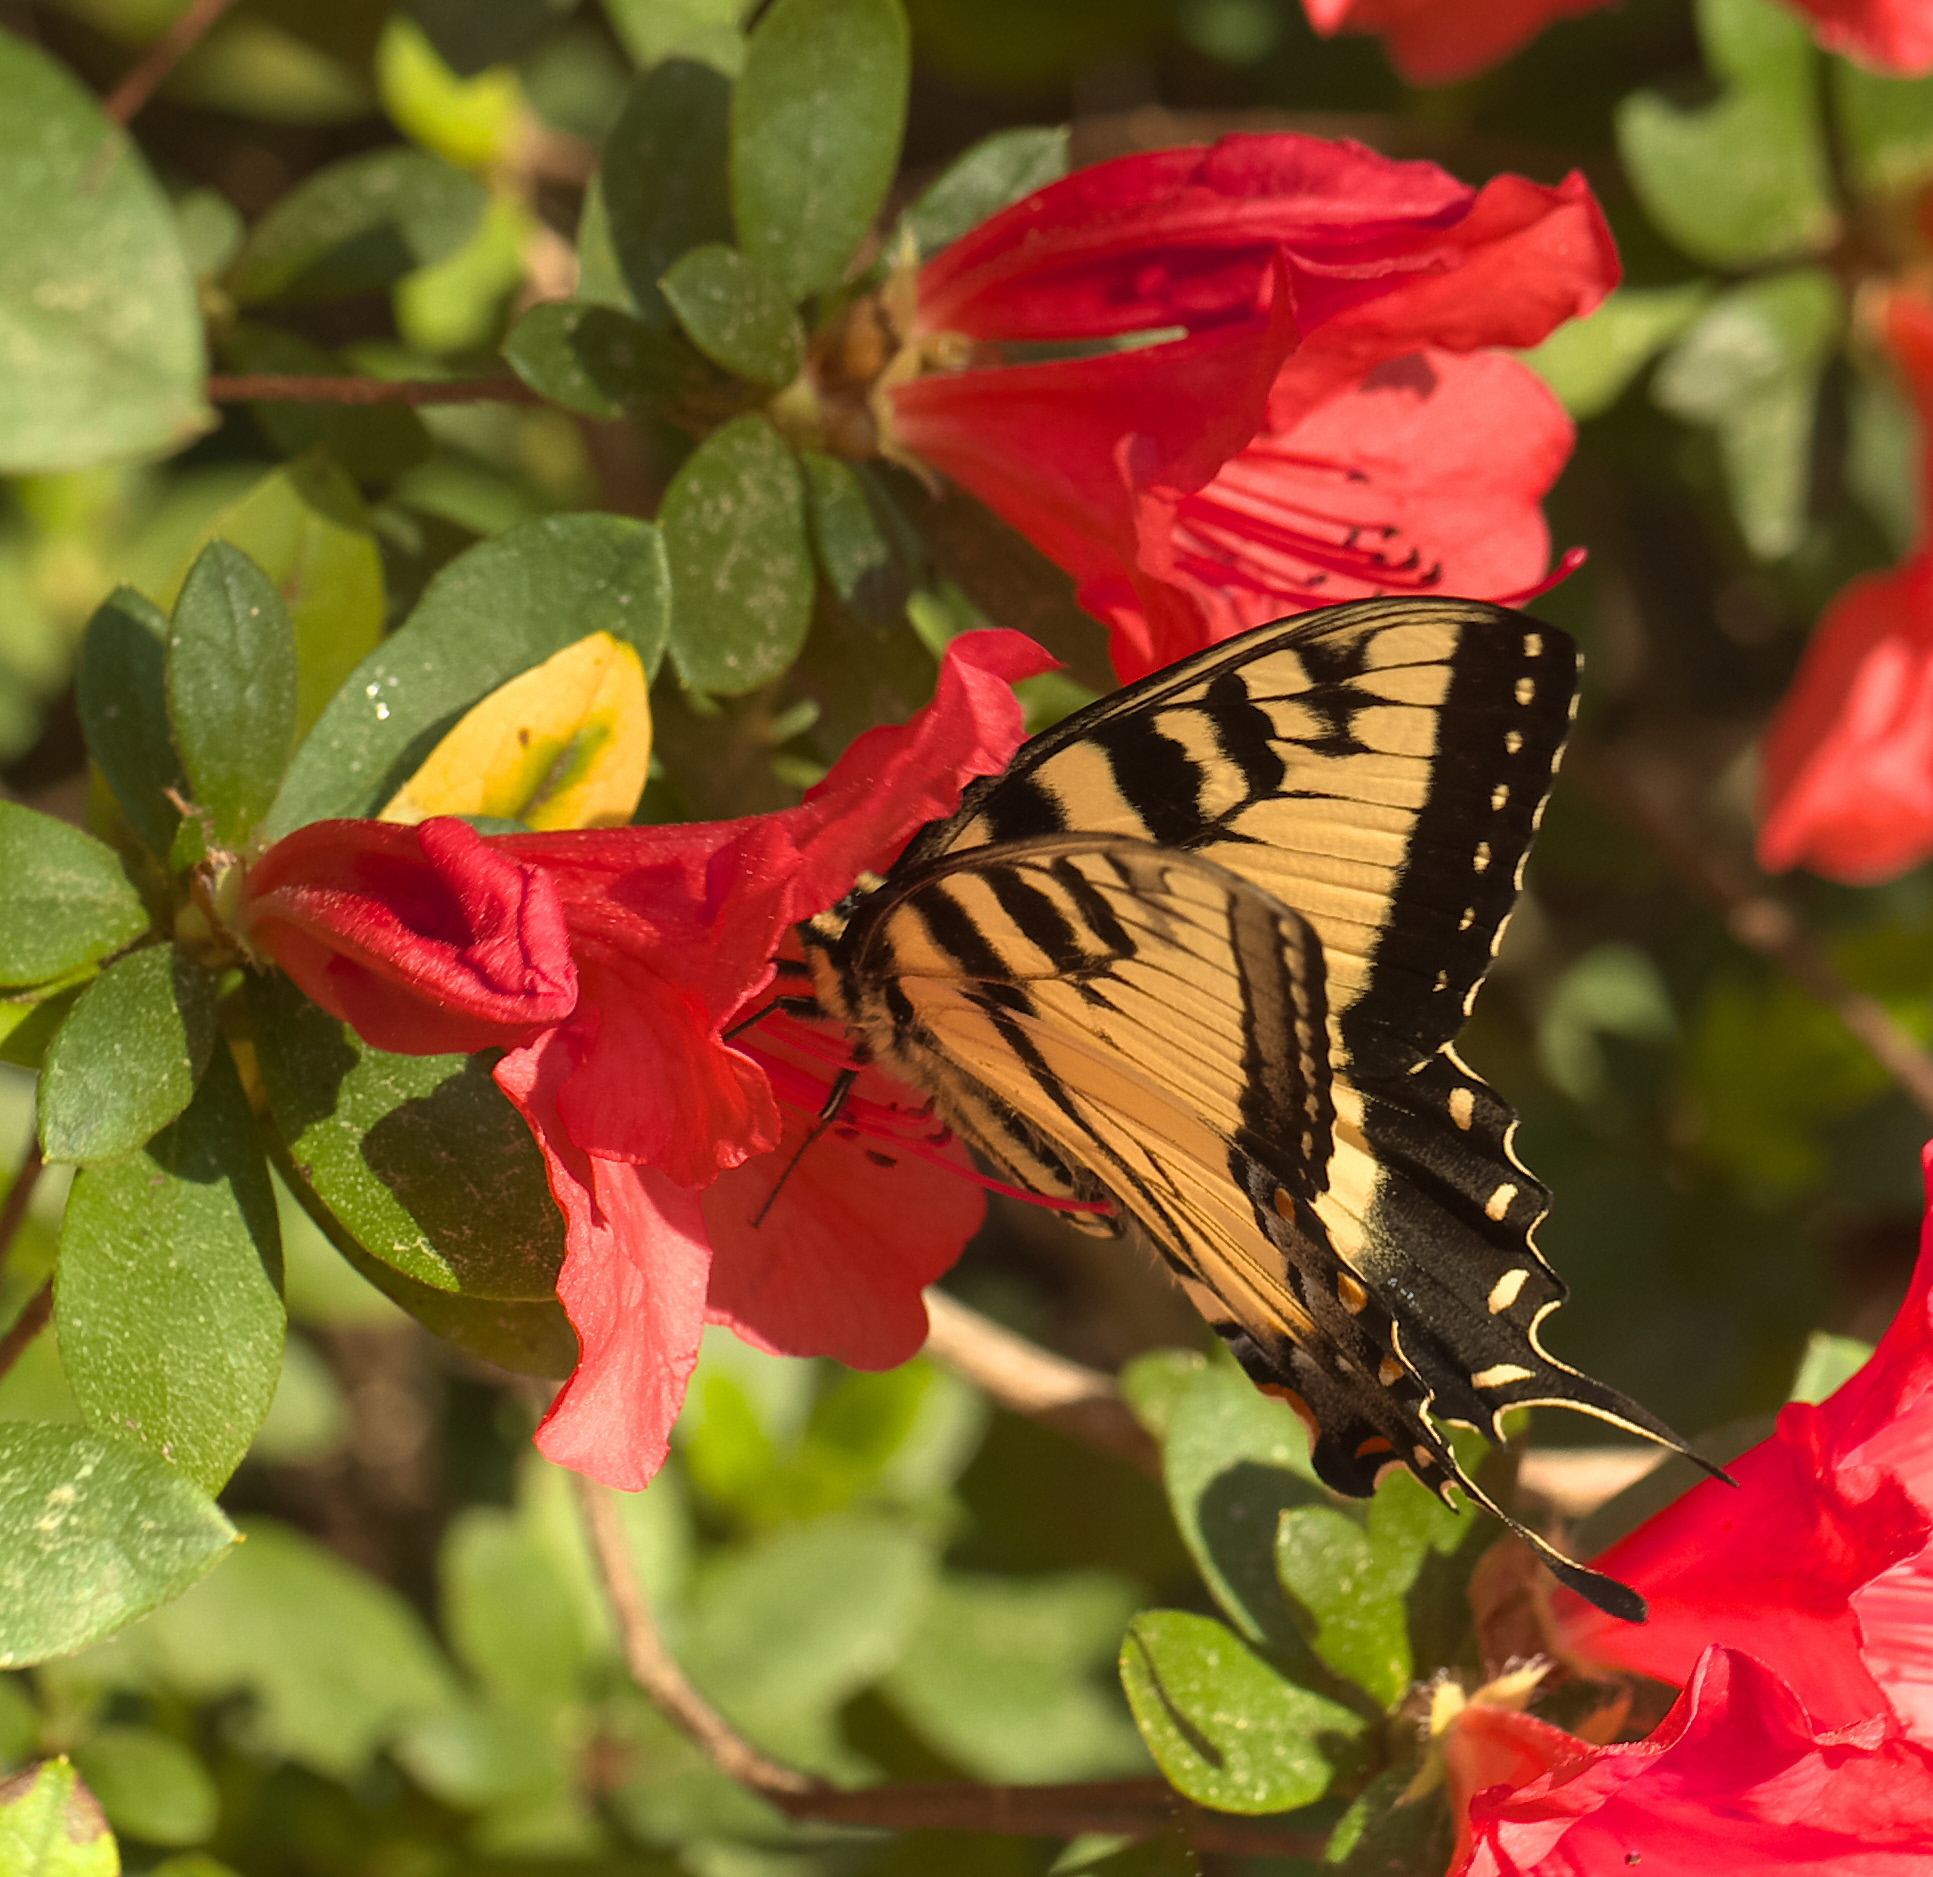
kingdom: Animalia
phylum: Arthropoda
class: Insecta
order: Lepidoptera
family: Papilionidae
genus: Papilio
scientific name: Papilio glaucus
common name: Tiger swallowtail
